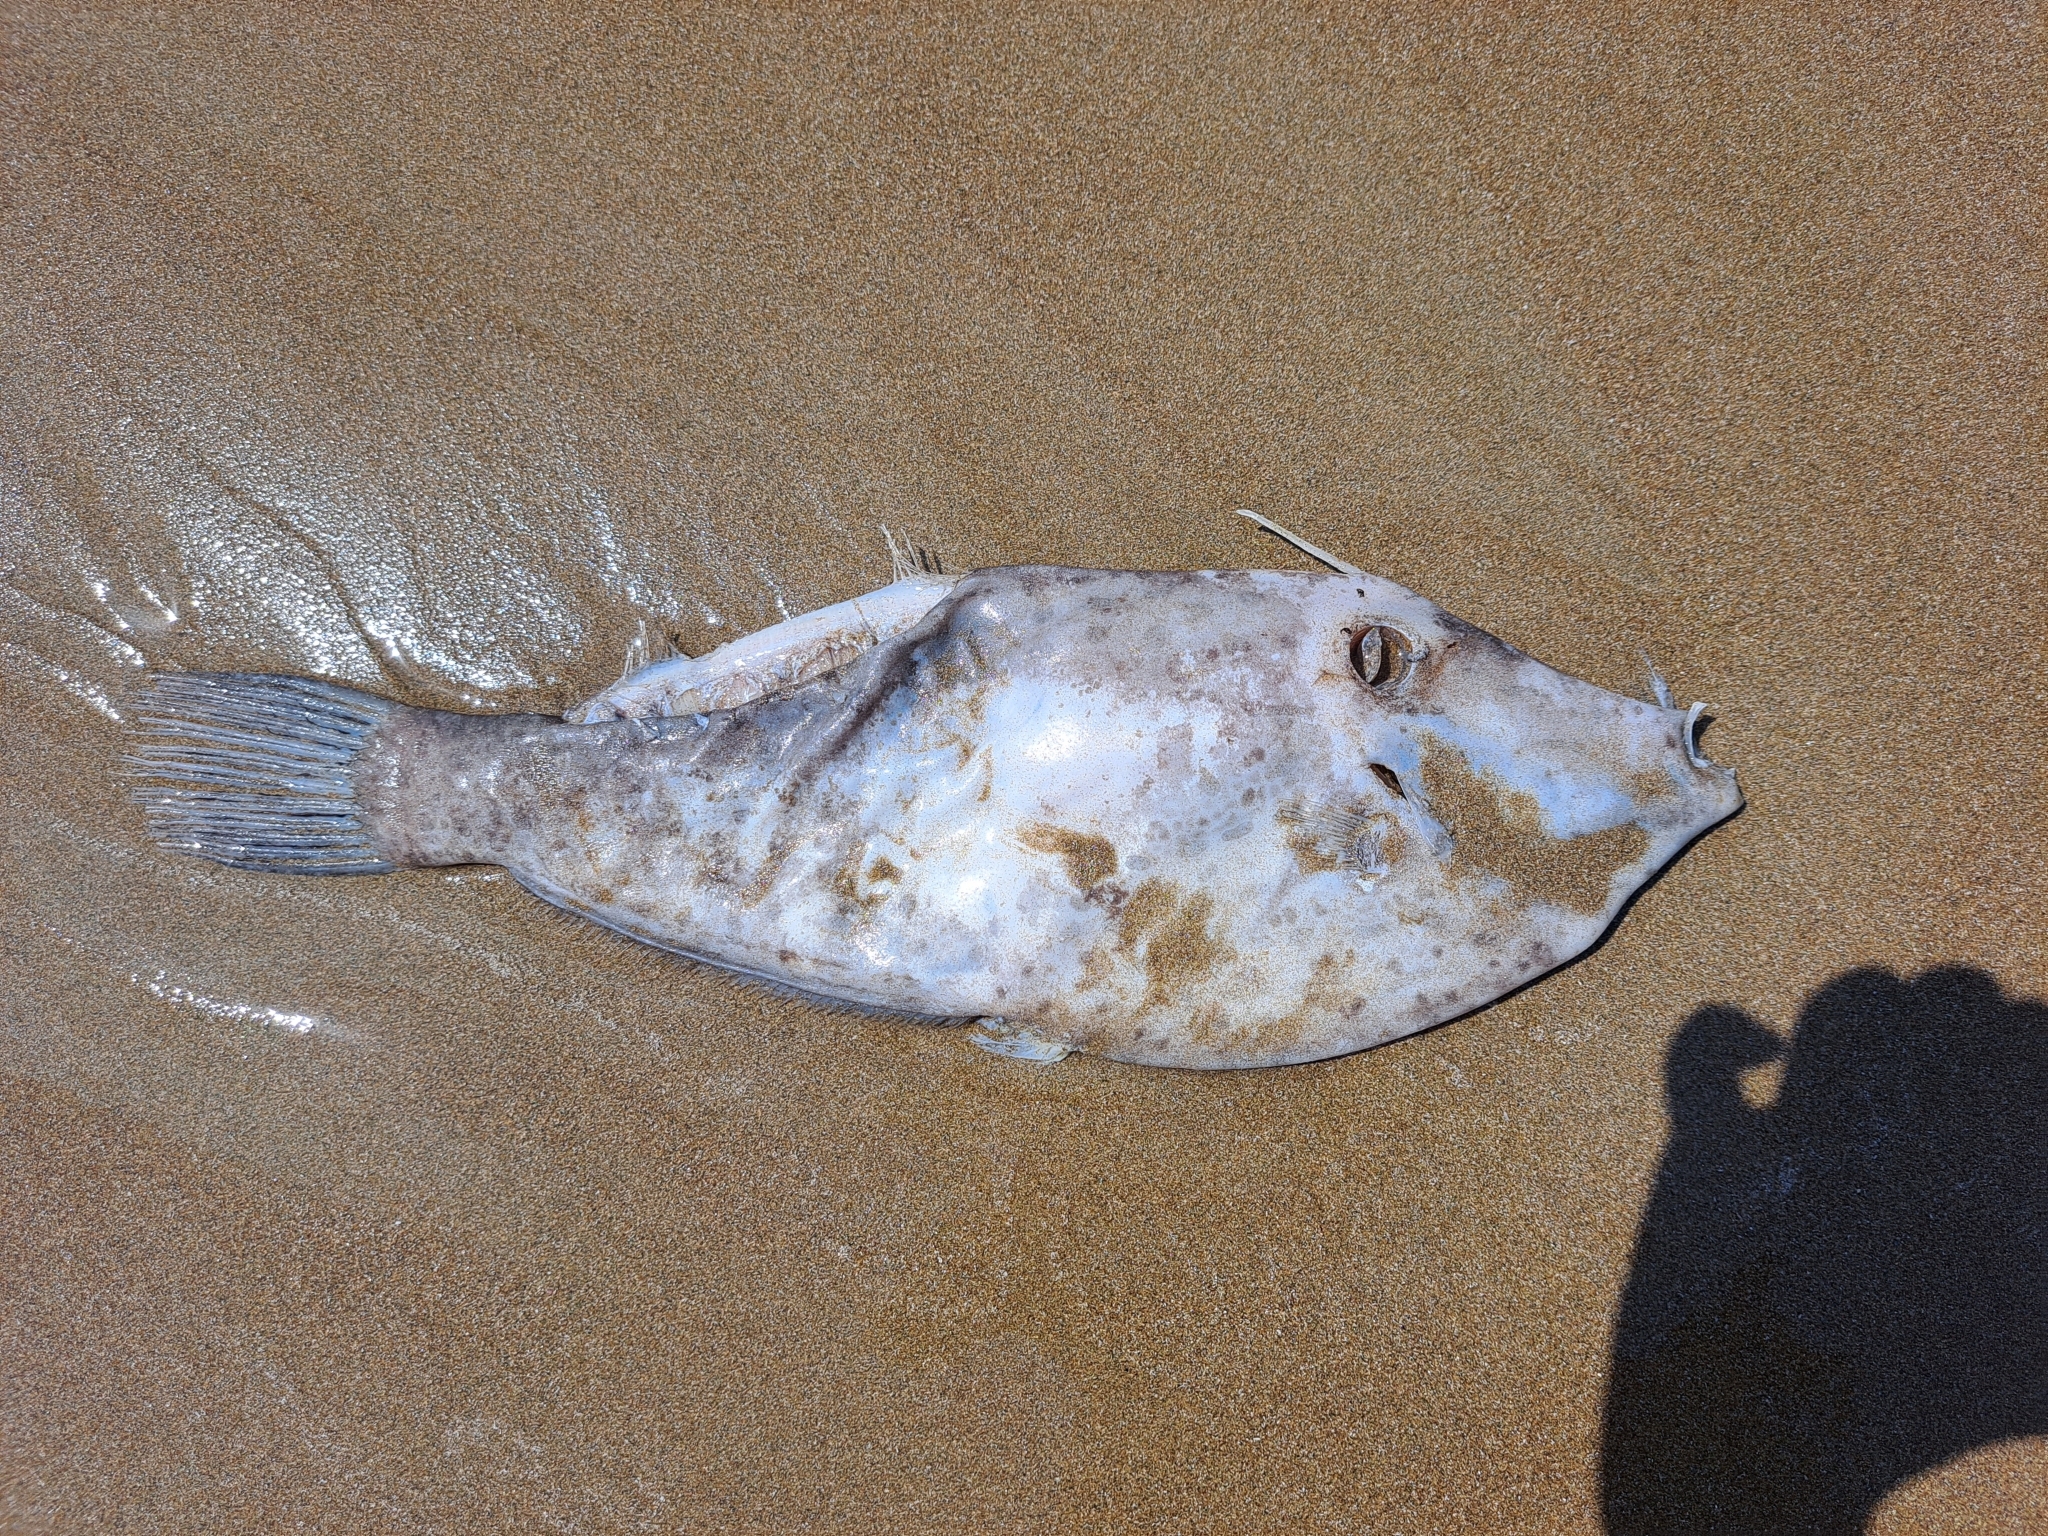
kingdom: Animalia
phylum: Chordata
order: Tetraodontiformes
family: Monacanthidae
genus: Aluterus
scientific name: Aluterus scriptus
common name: Scribbled leatherjacket filefish
